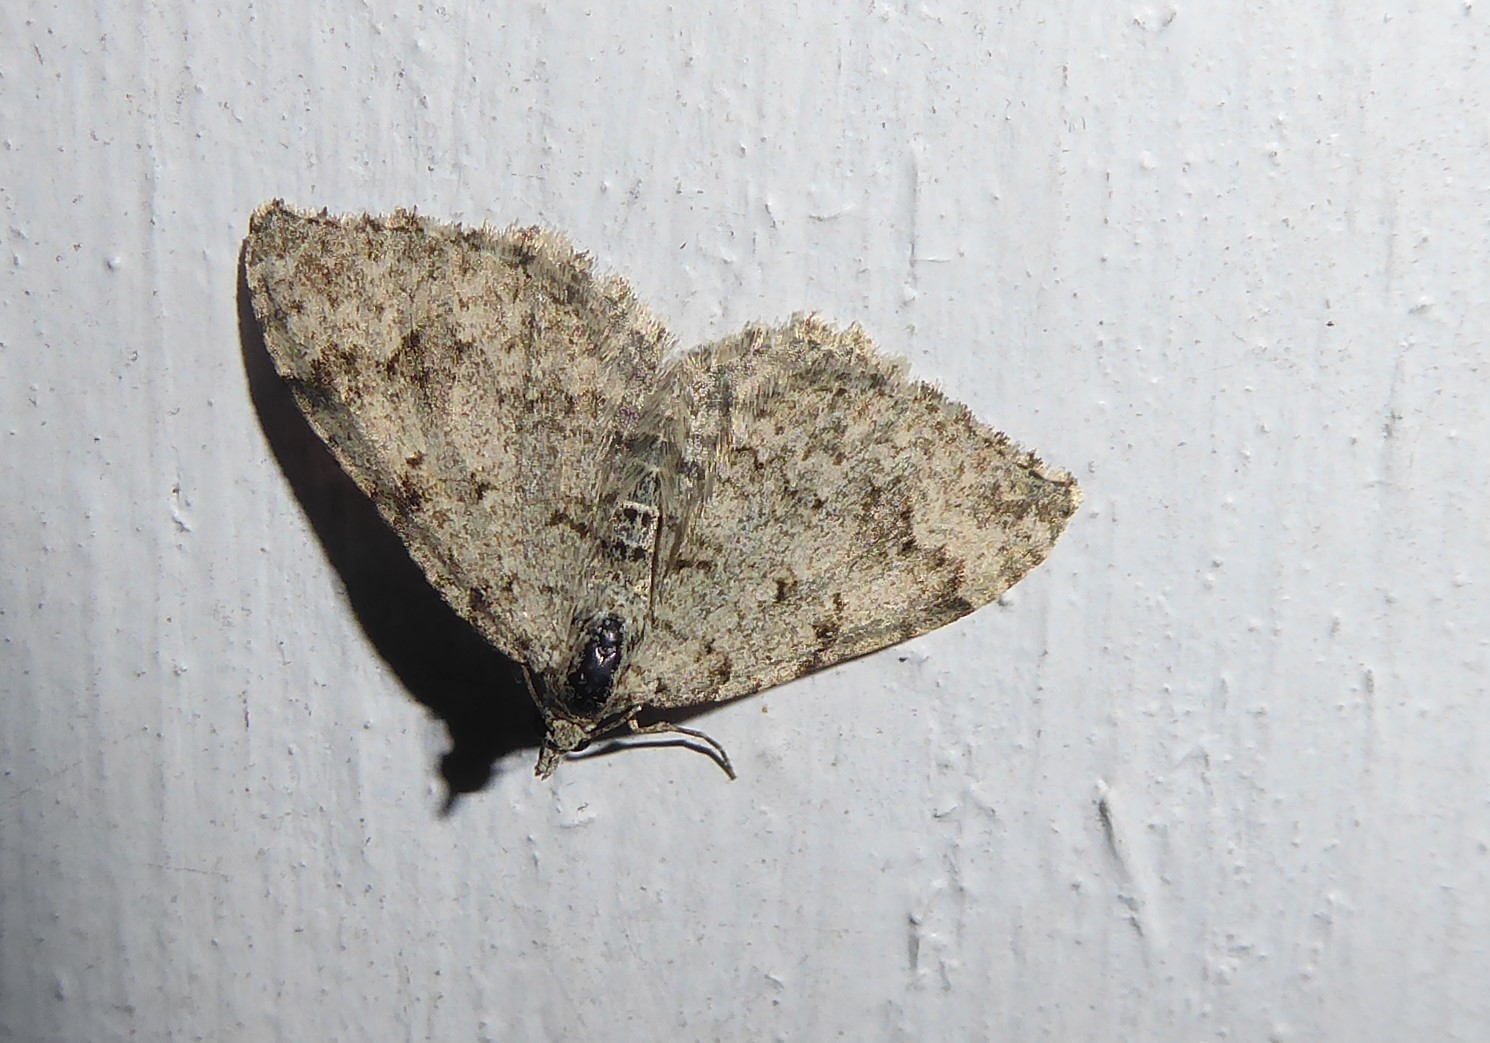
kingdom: Animalia
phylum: Arthropoda
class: Insecta
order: Lepidoptera
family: Geometridae
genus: Helastia
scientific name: Helastia corcularia
